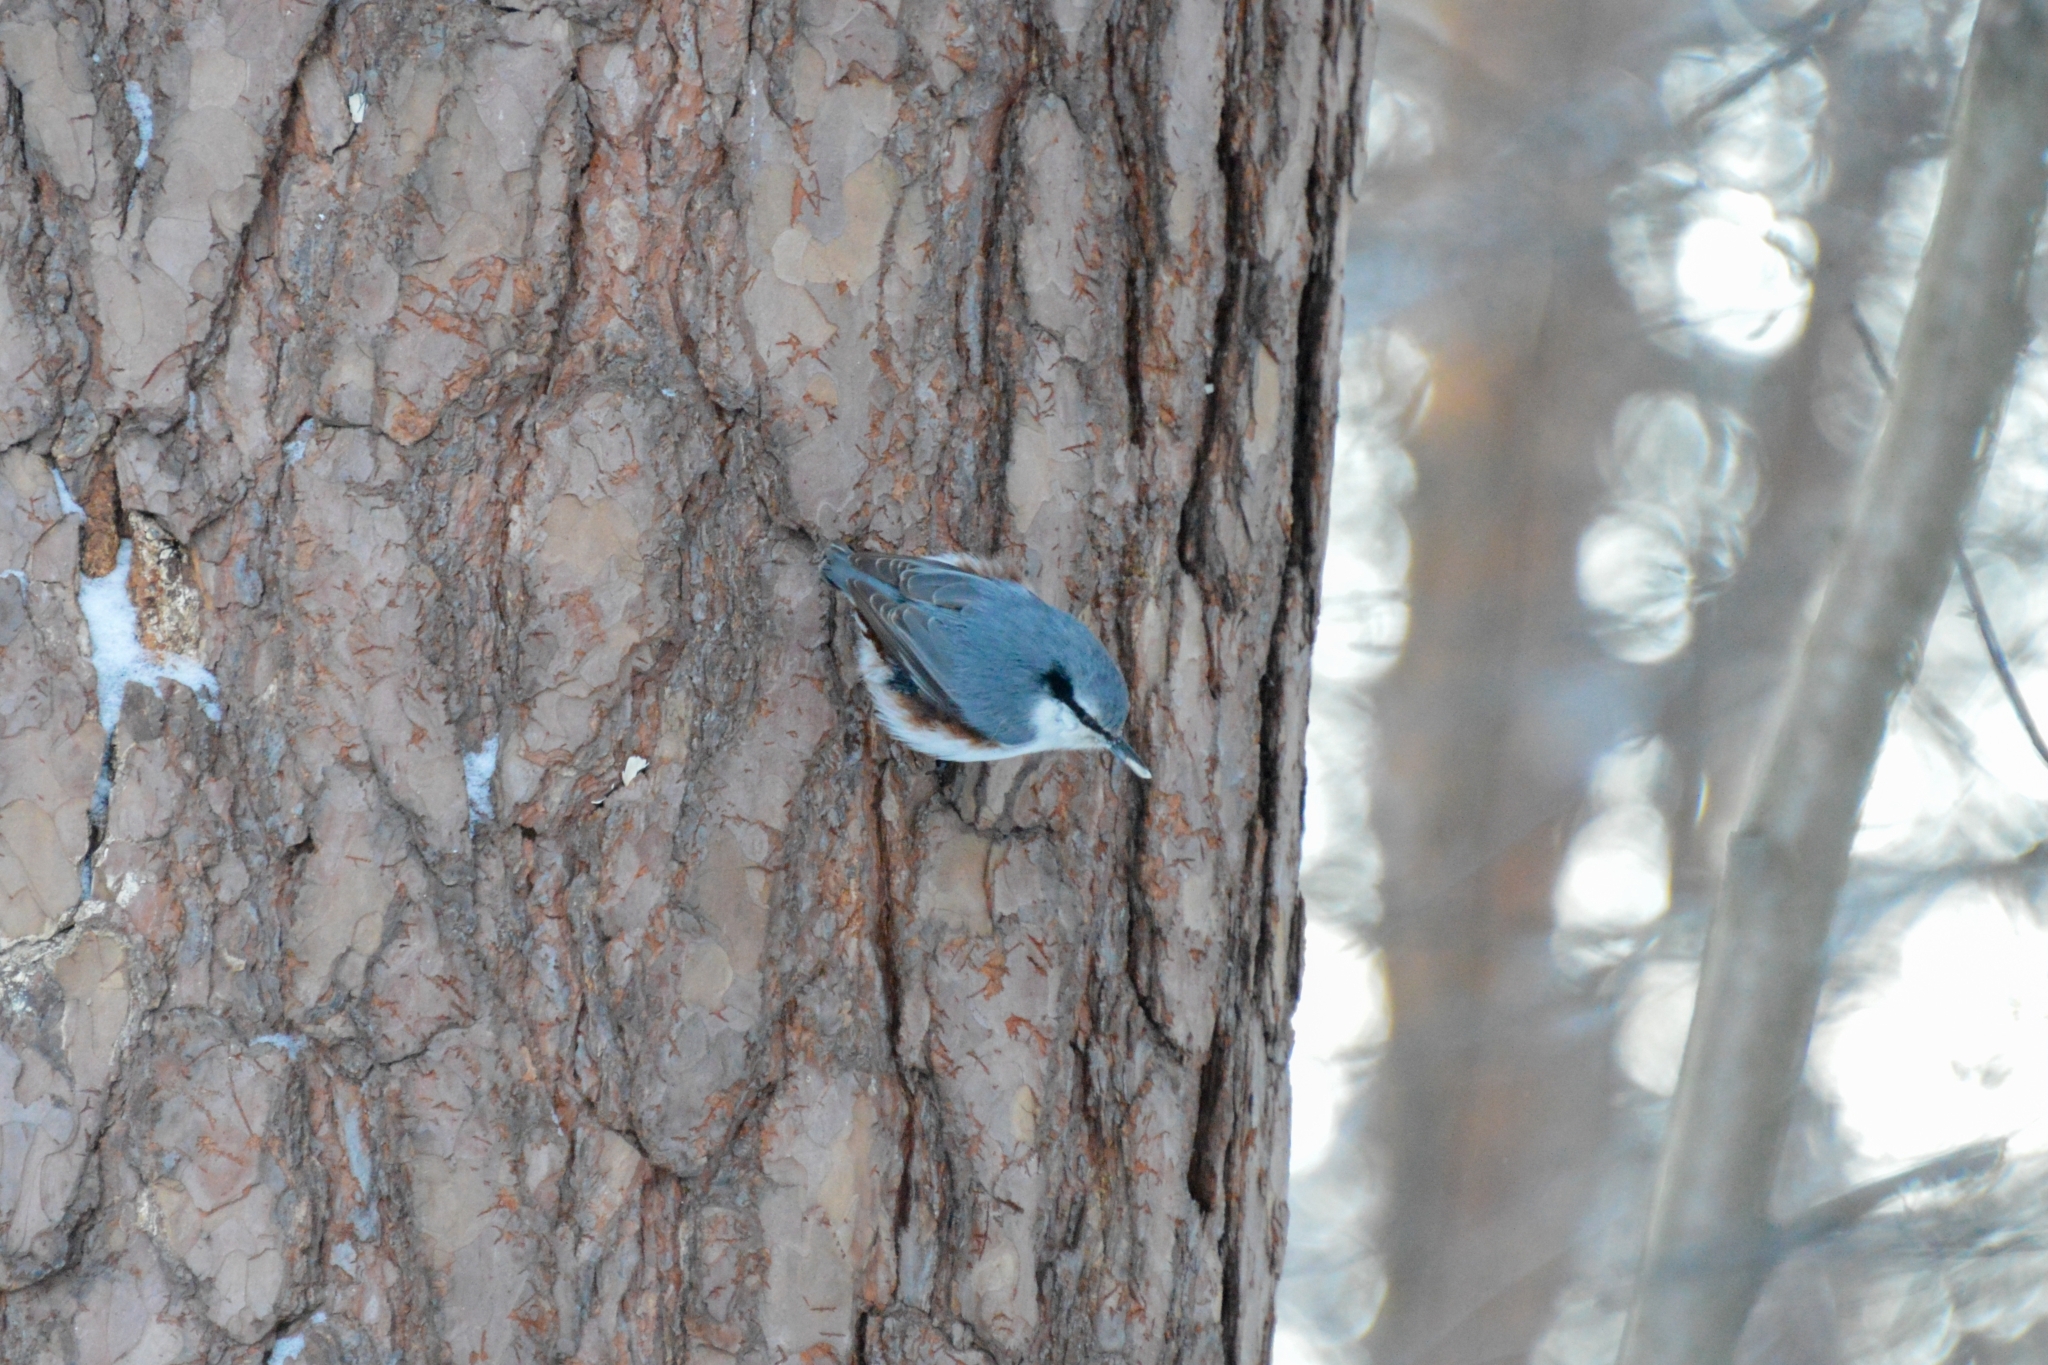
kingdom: Animalia
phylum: Chordata
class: Aves
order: Passeriformes
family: Sittidae
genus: Sitta
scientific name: Sitta europaea
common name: Eurasian nuthatch
